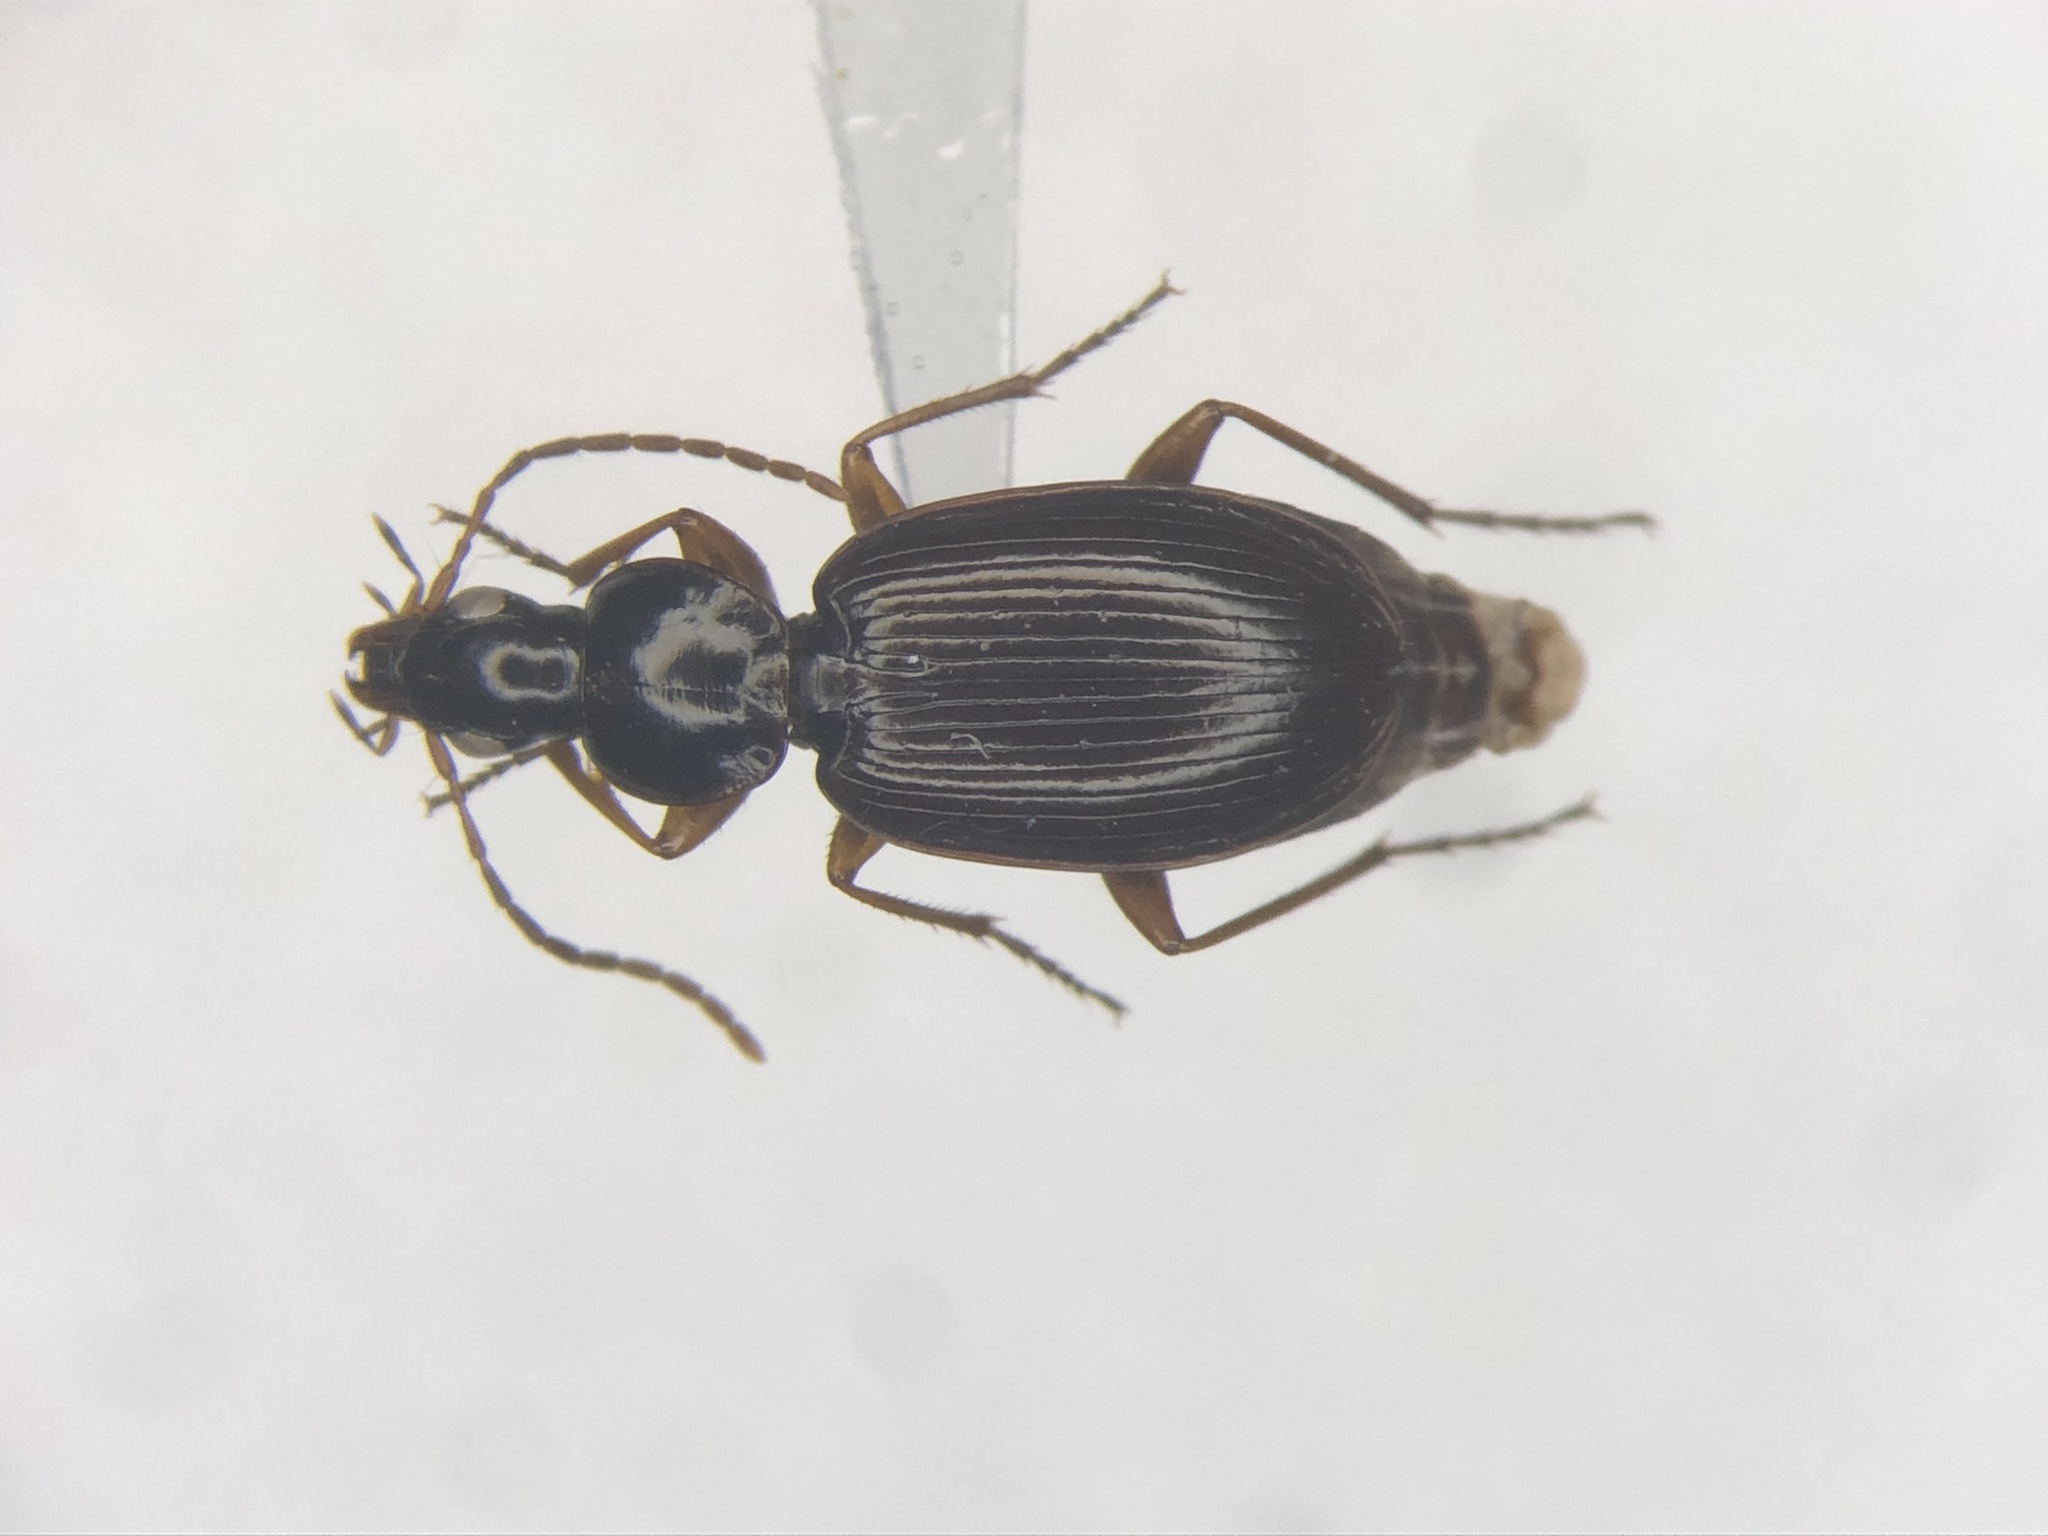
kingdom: Animalia
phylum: Arthropoda
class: Insecta
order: Coleoptera
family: Carabidae
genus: Agonum
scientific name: Agonum palustre
